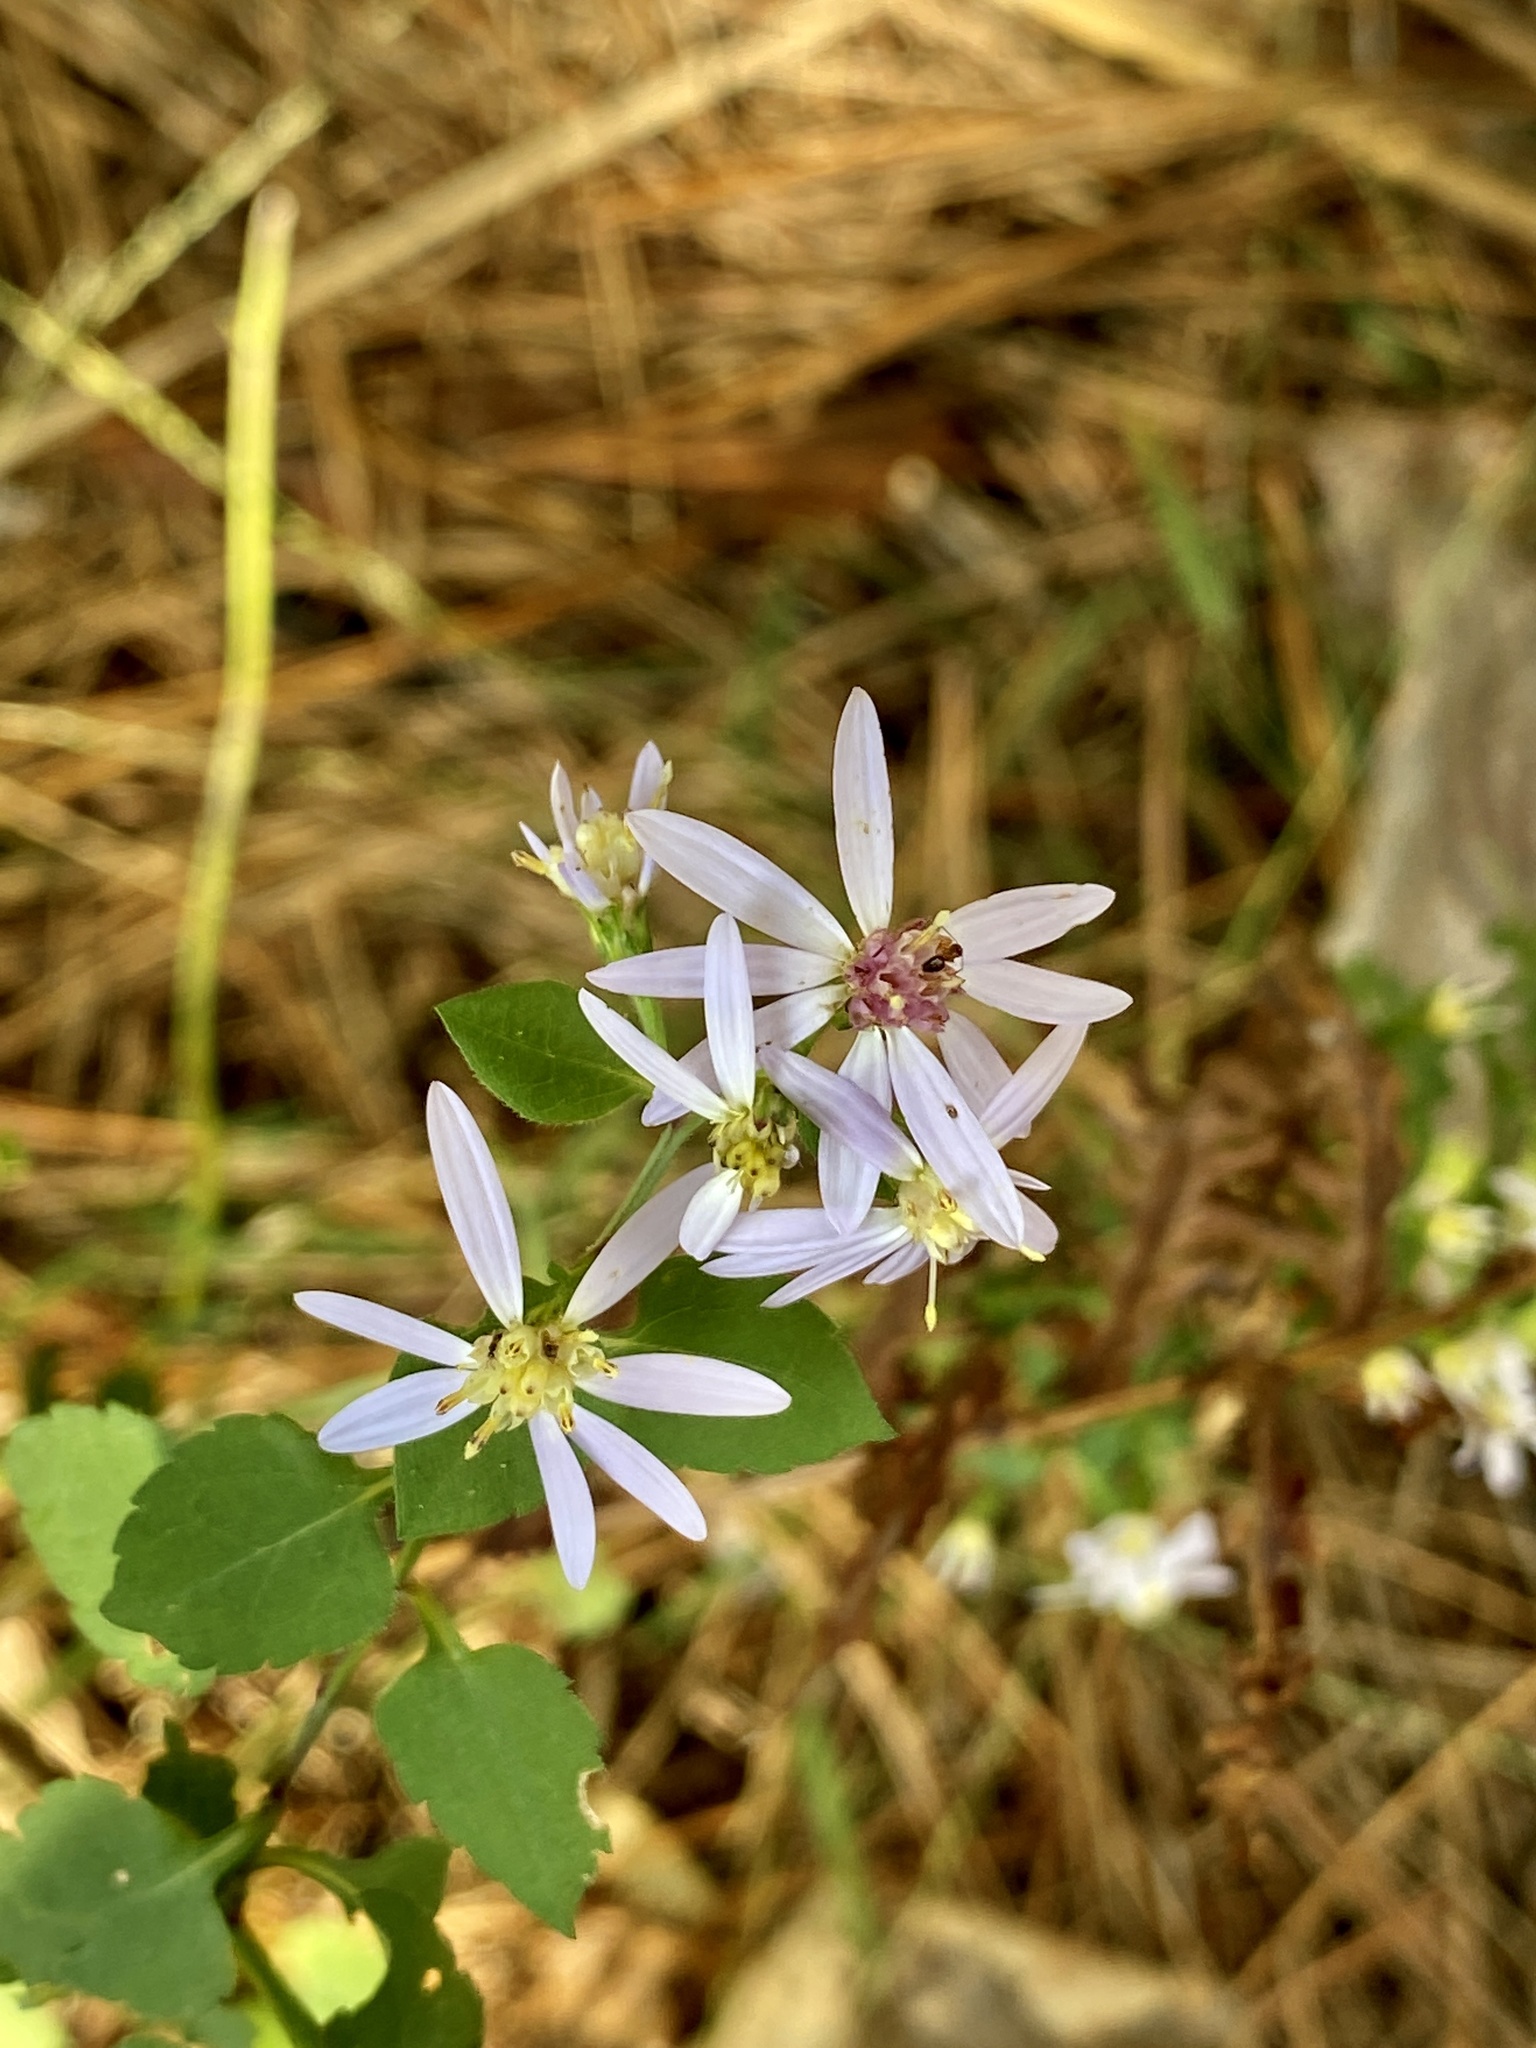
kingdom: Plantae
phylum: Tracheophyta
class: Magnoliopsida
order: Asterales
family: Asteraceae
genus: Symphyotrichum
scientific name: Symphyotrichum cordifolium
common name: Beeweed
